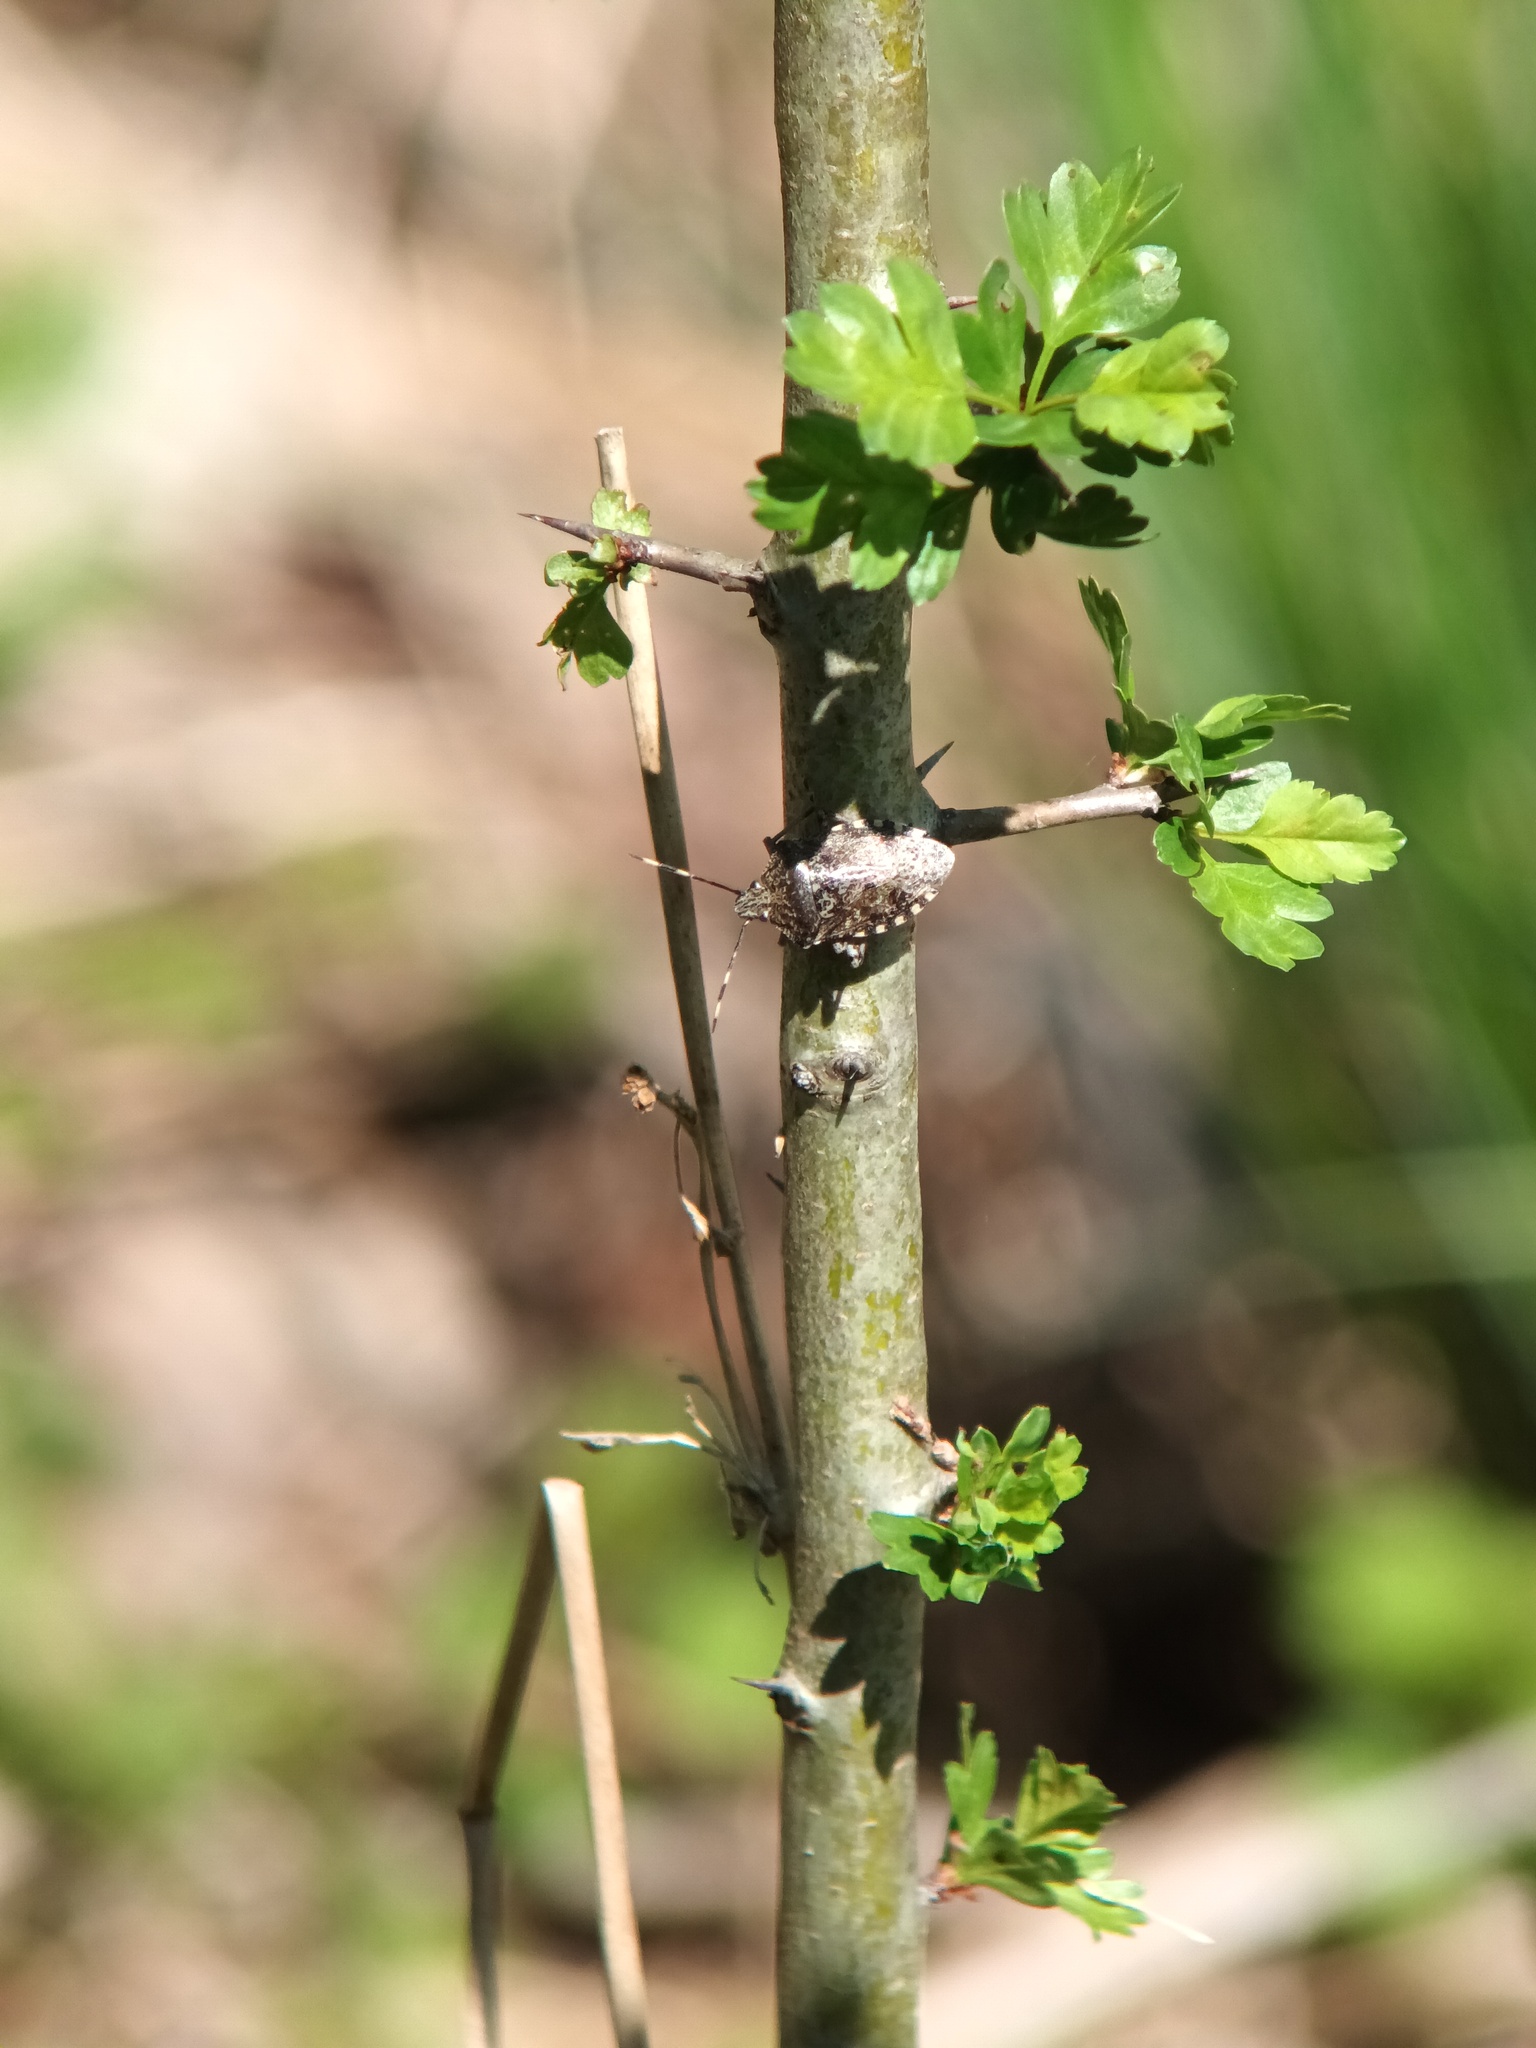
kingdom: Animalia
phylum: Arthropoda
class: Insecta
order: Hemiptera
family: Pentatomidae
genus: Rhaphigaster
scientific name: Rhaphigaster nebulosa
